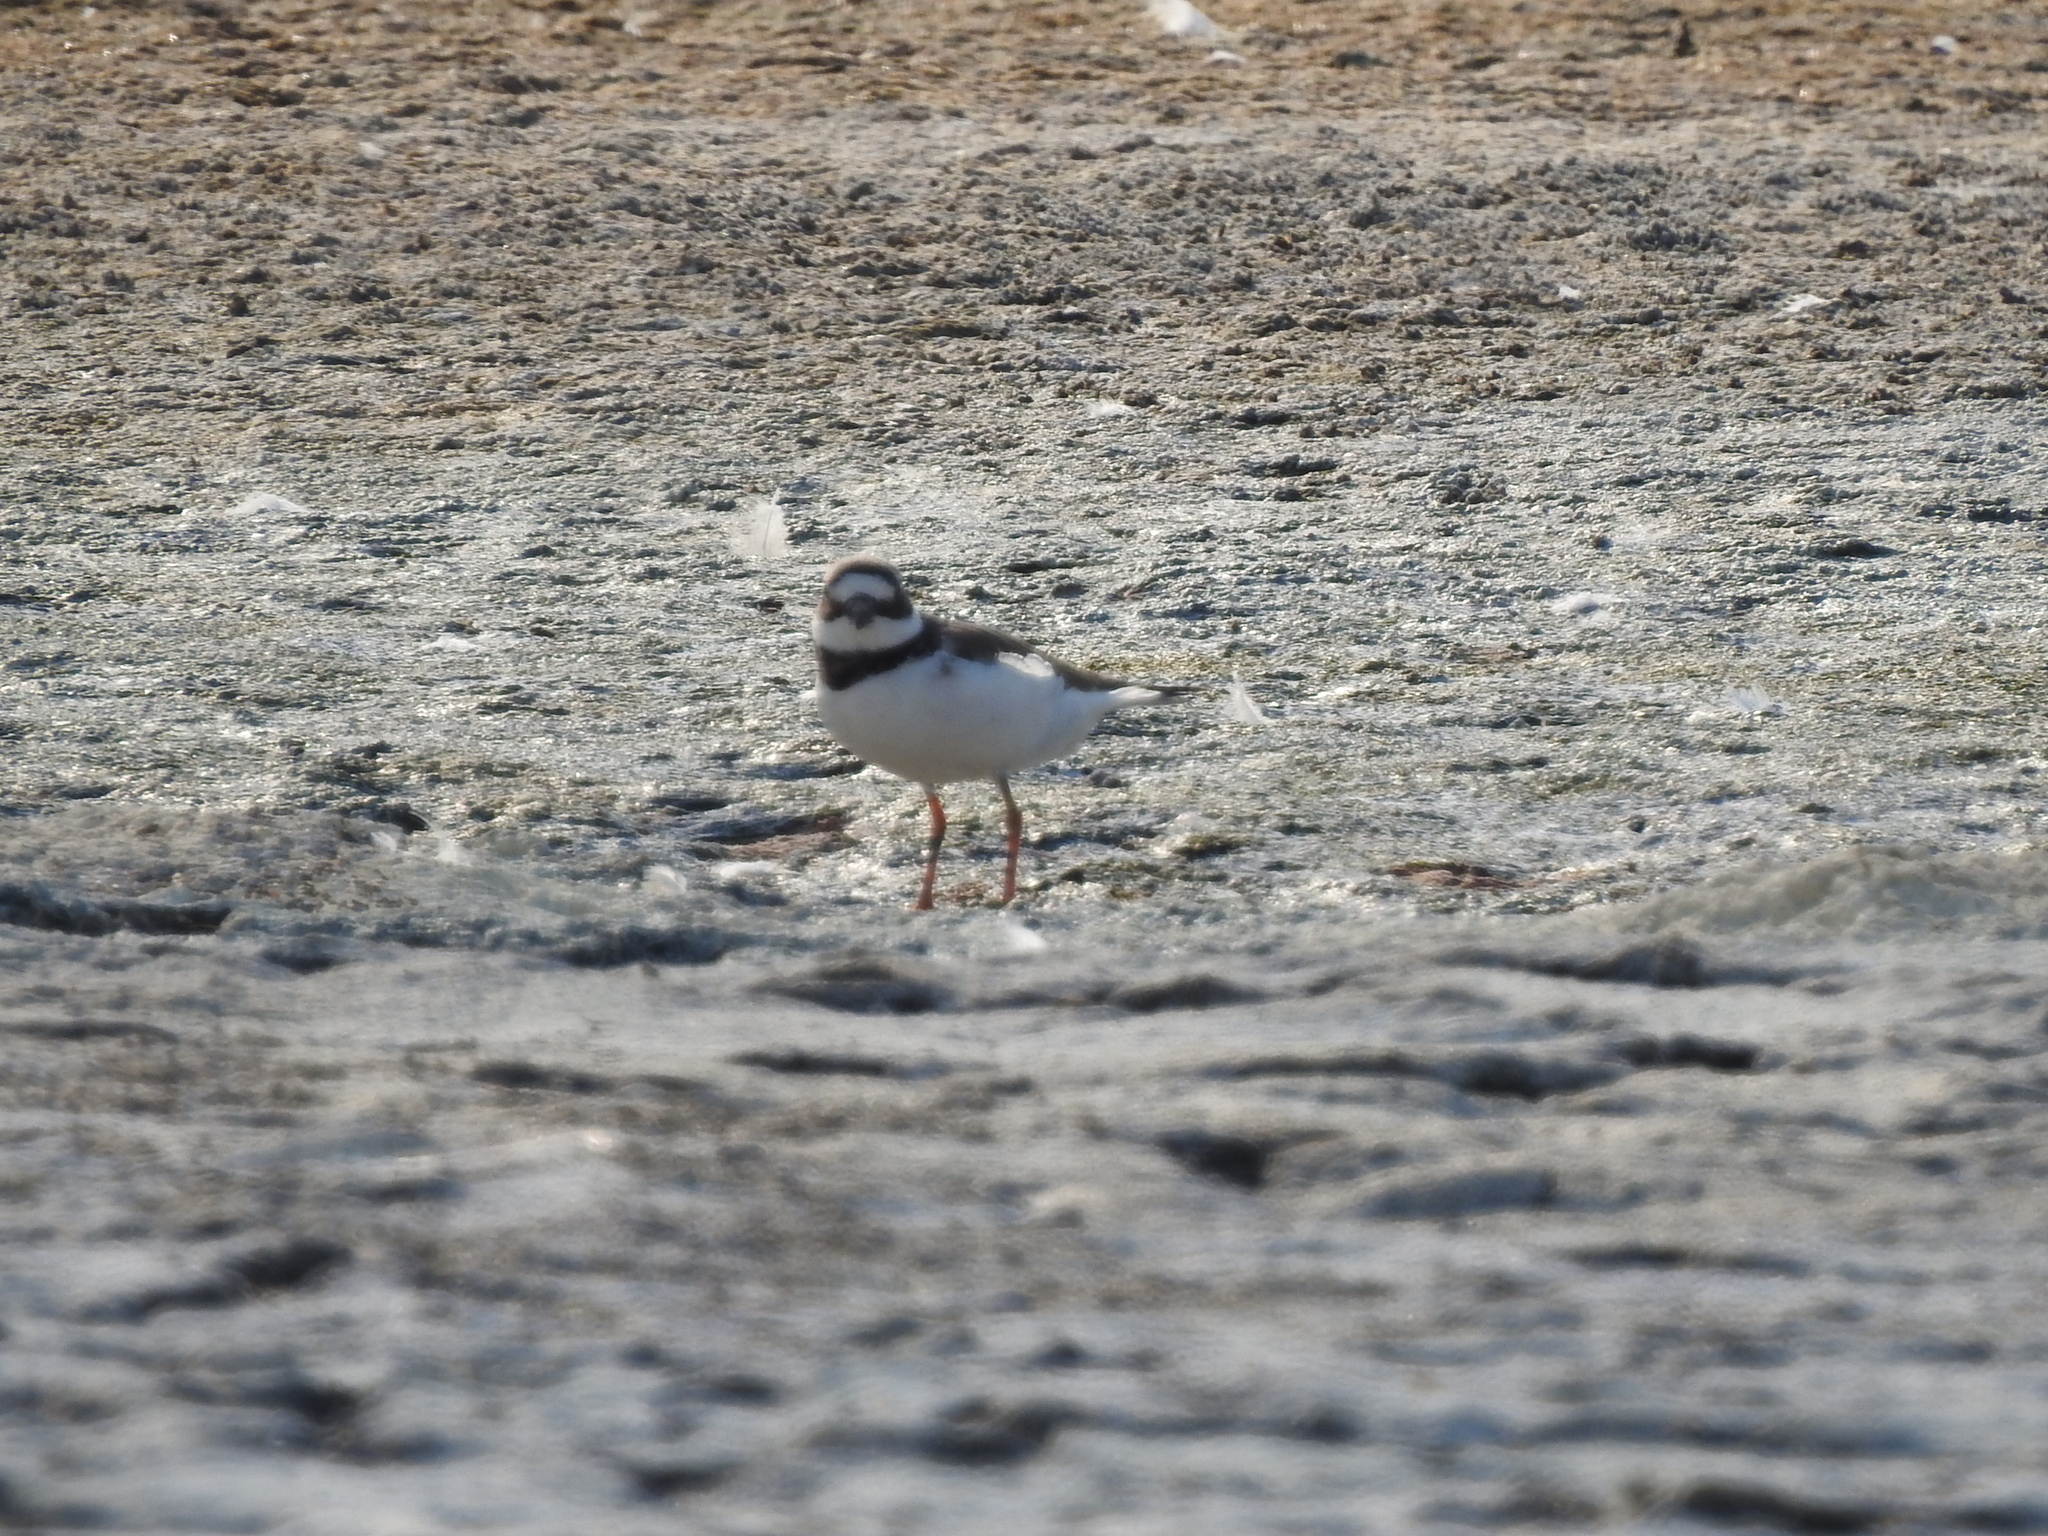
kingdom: Animalia
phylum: Chordata
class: Aves
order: Charadriiformes
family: Charadriidae
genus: Charadrius
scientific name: Charadrius hiaticula
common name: Common ringed plover
